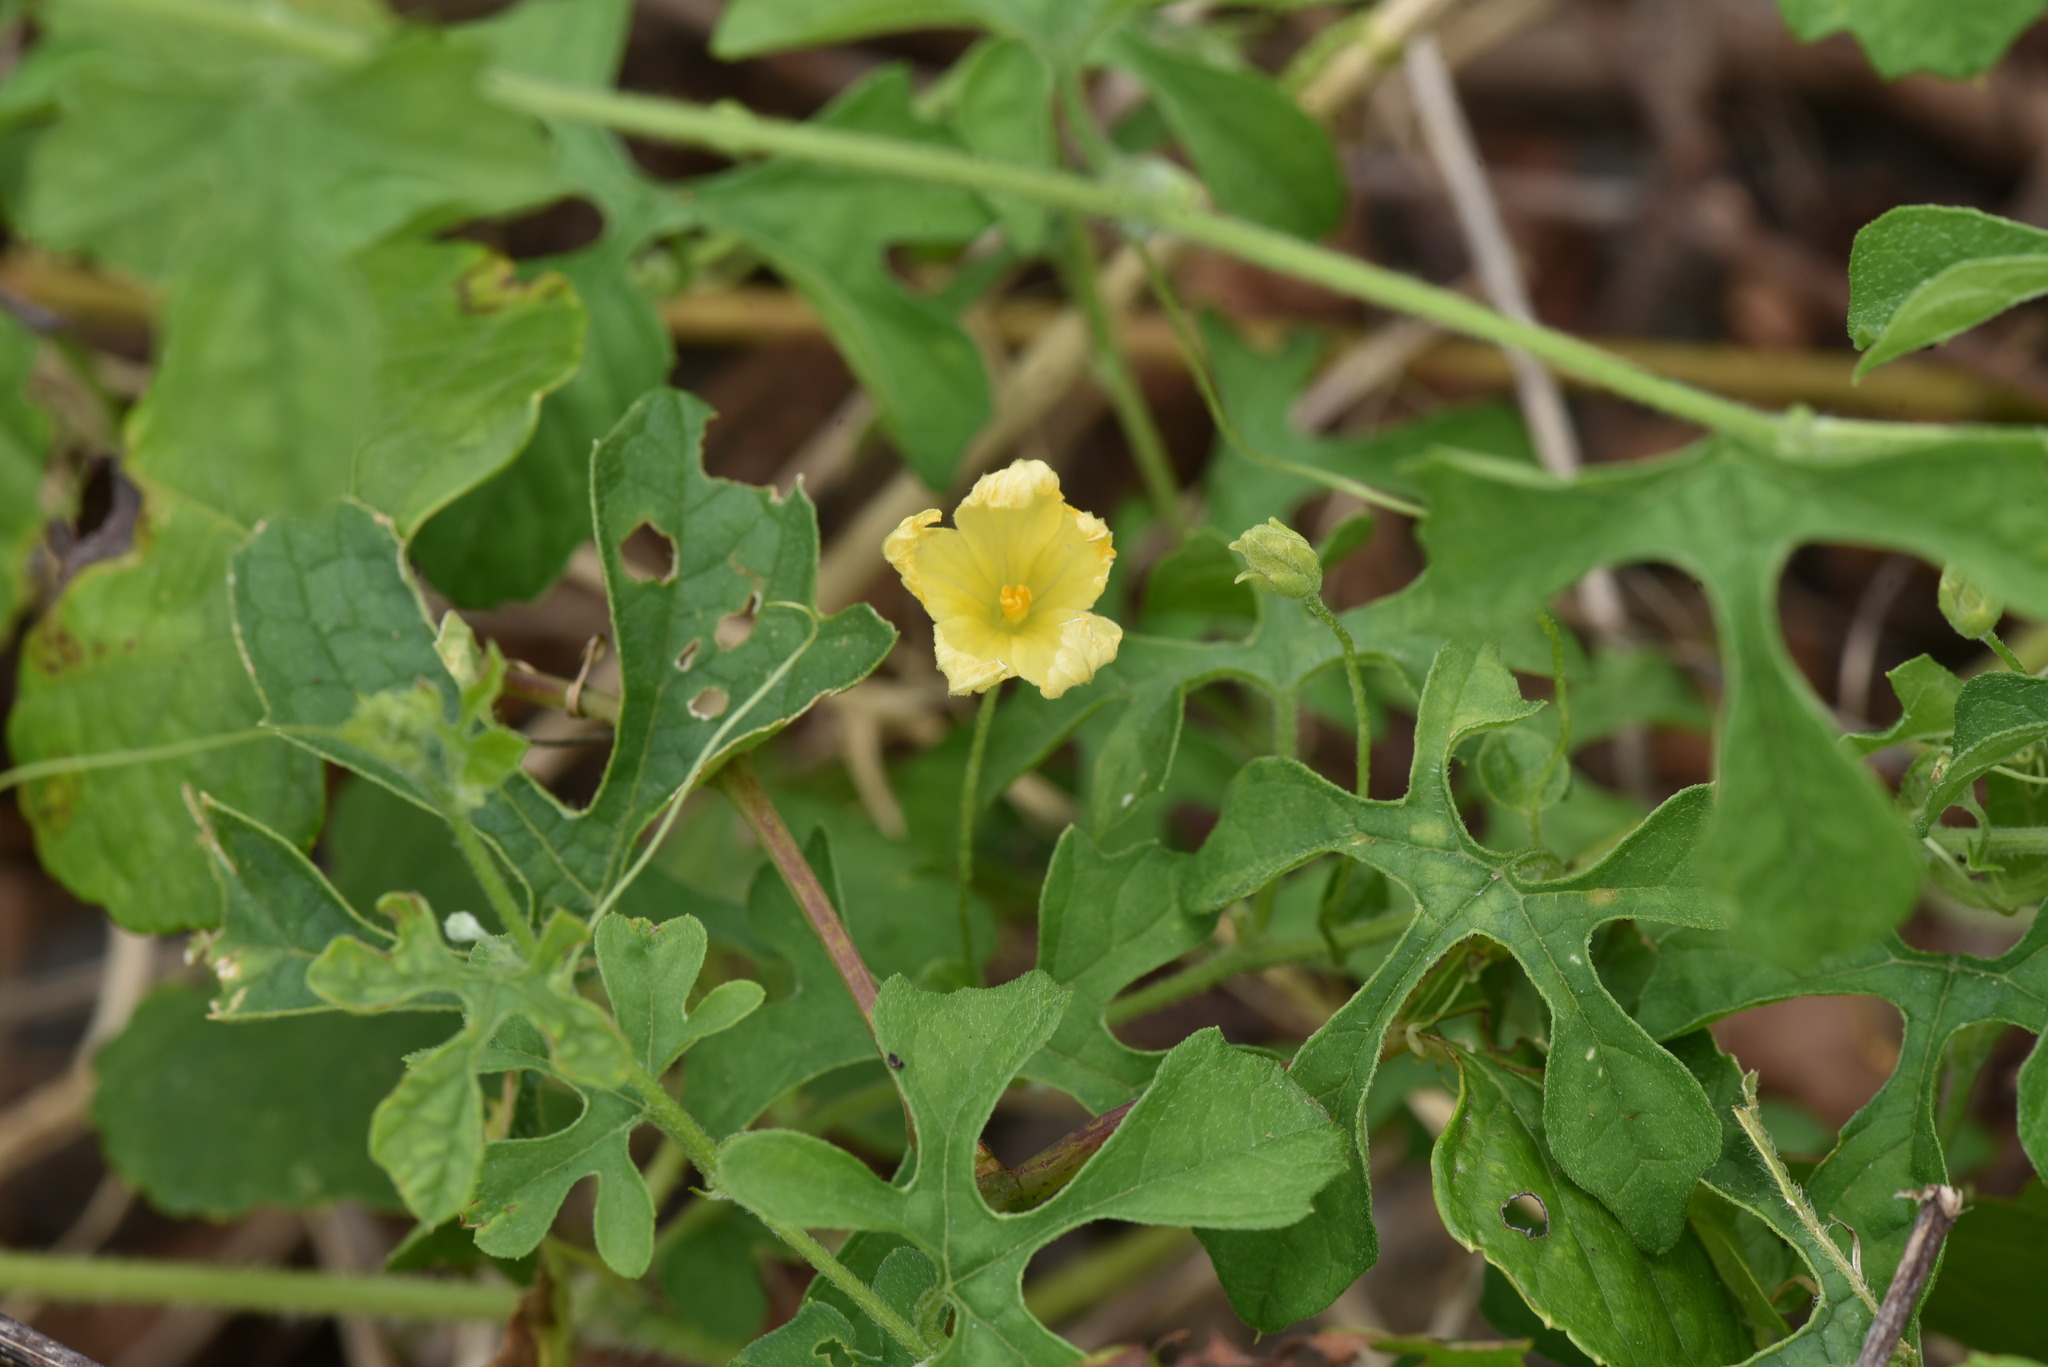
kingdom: Plantae
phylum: Tracheophyta
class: Magnoliopsida
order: Cucurbitales
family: Cucurbitaceae
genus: Momordica
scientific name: Momordica charantia
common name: Balsampear
